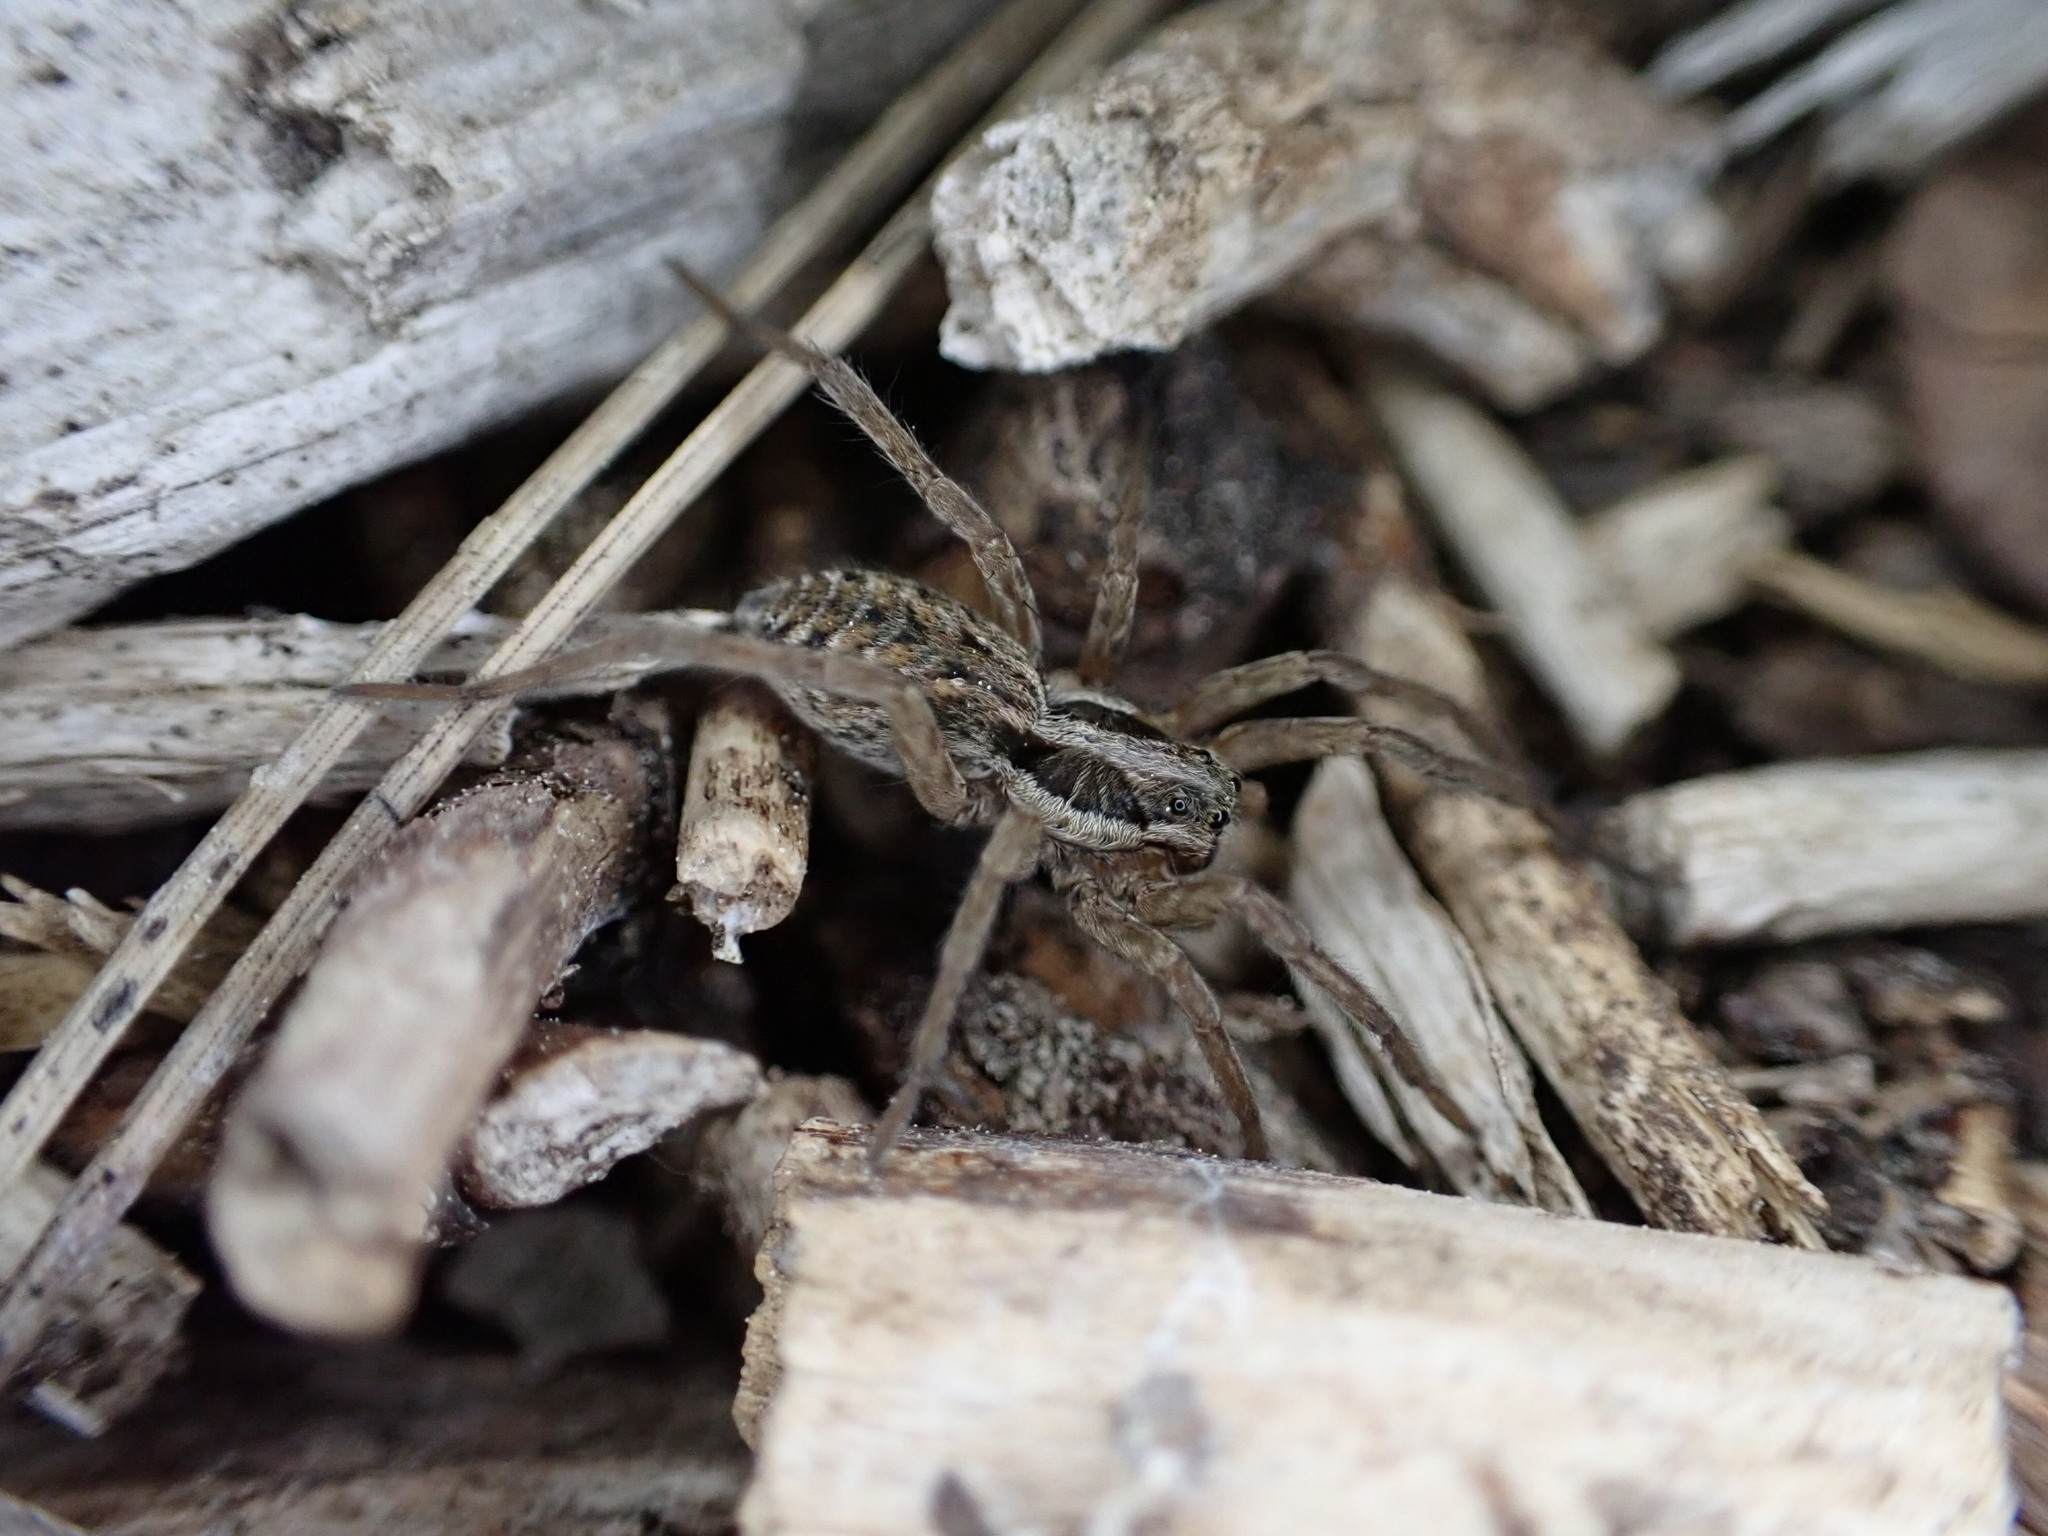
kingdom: Animalia
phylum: Arthropoda
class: Arachnida
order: Araneae
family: Lycosidae
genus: Hogna
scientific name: Hogna radiata
